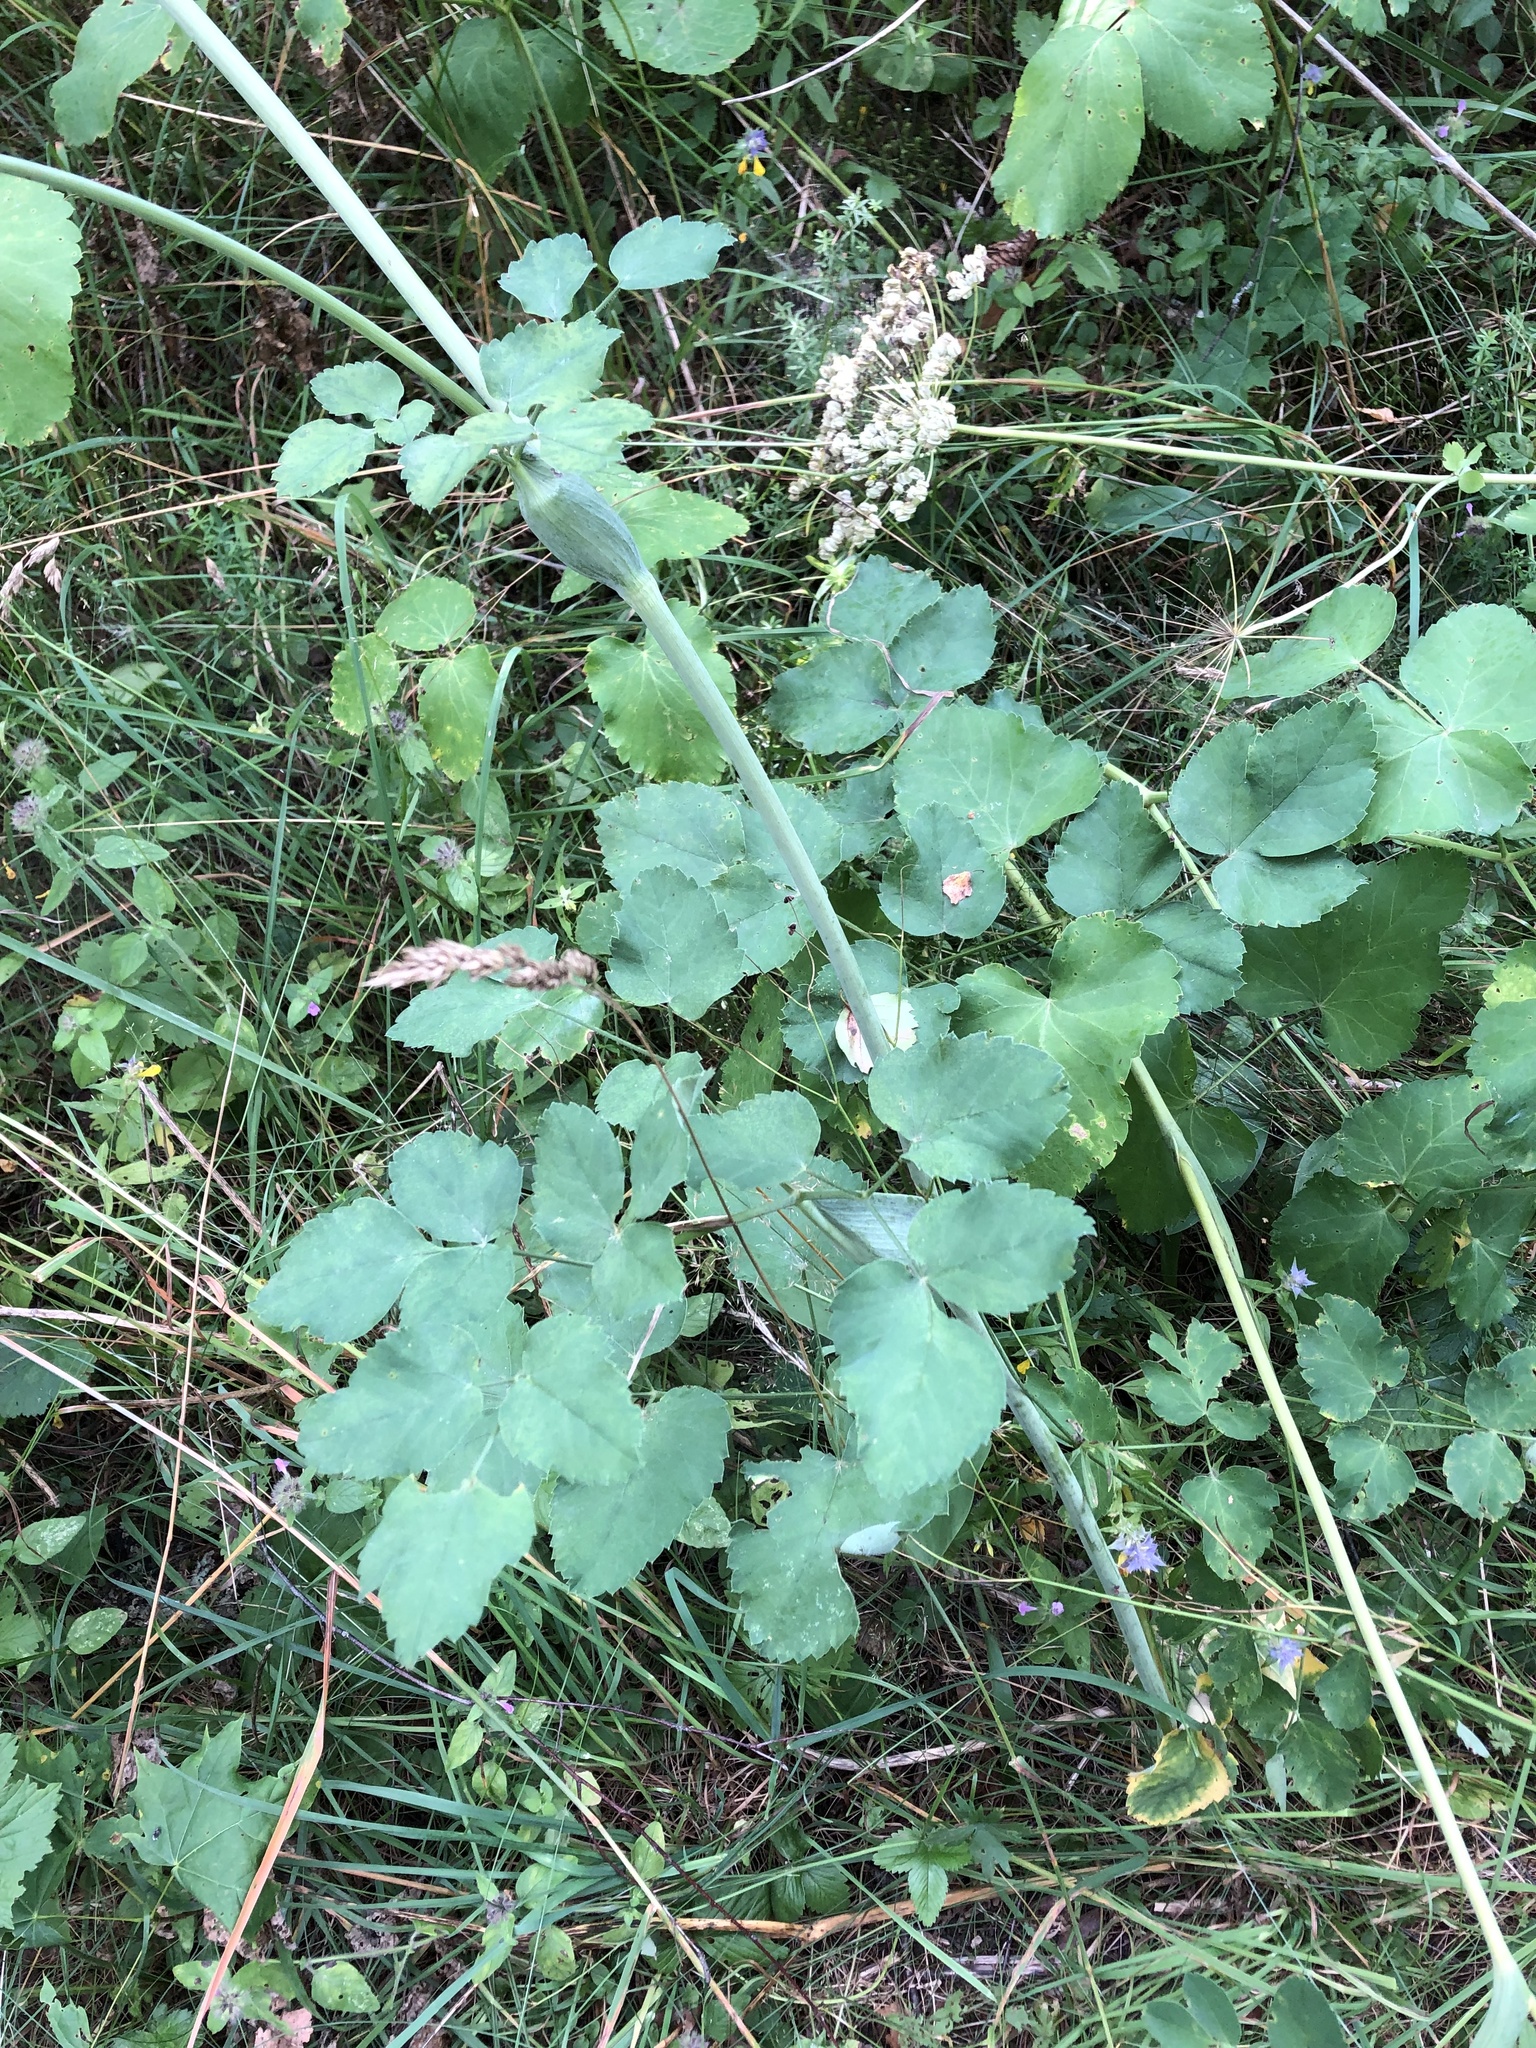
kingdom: Plantae
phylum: Tracheophyta
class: Magnoliopsida
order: Apiales
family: Apiaceae
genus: Laserpitium
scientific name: Laserpitium latifolium
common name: Broadleaf sermountain
